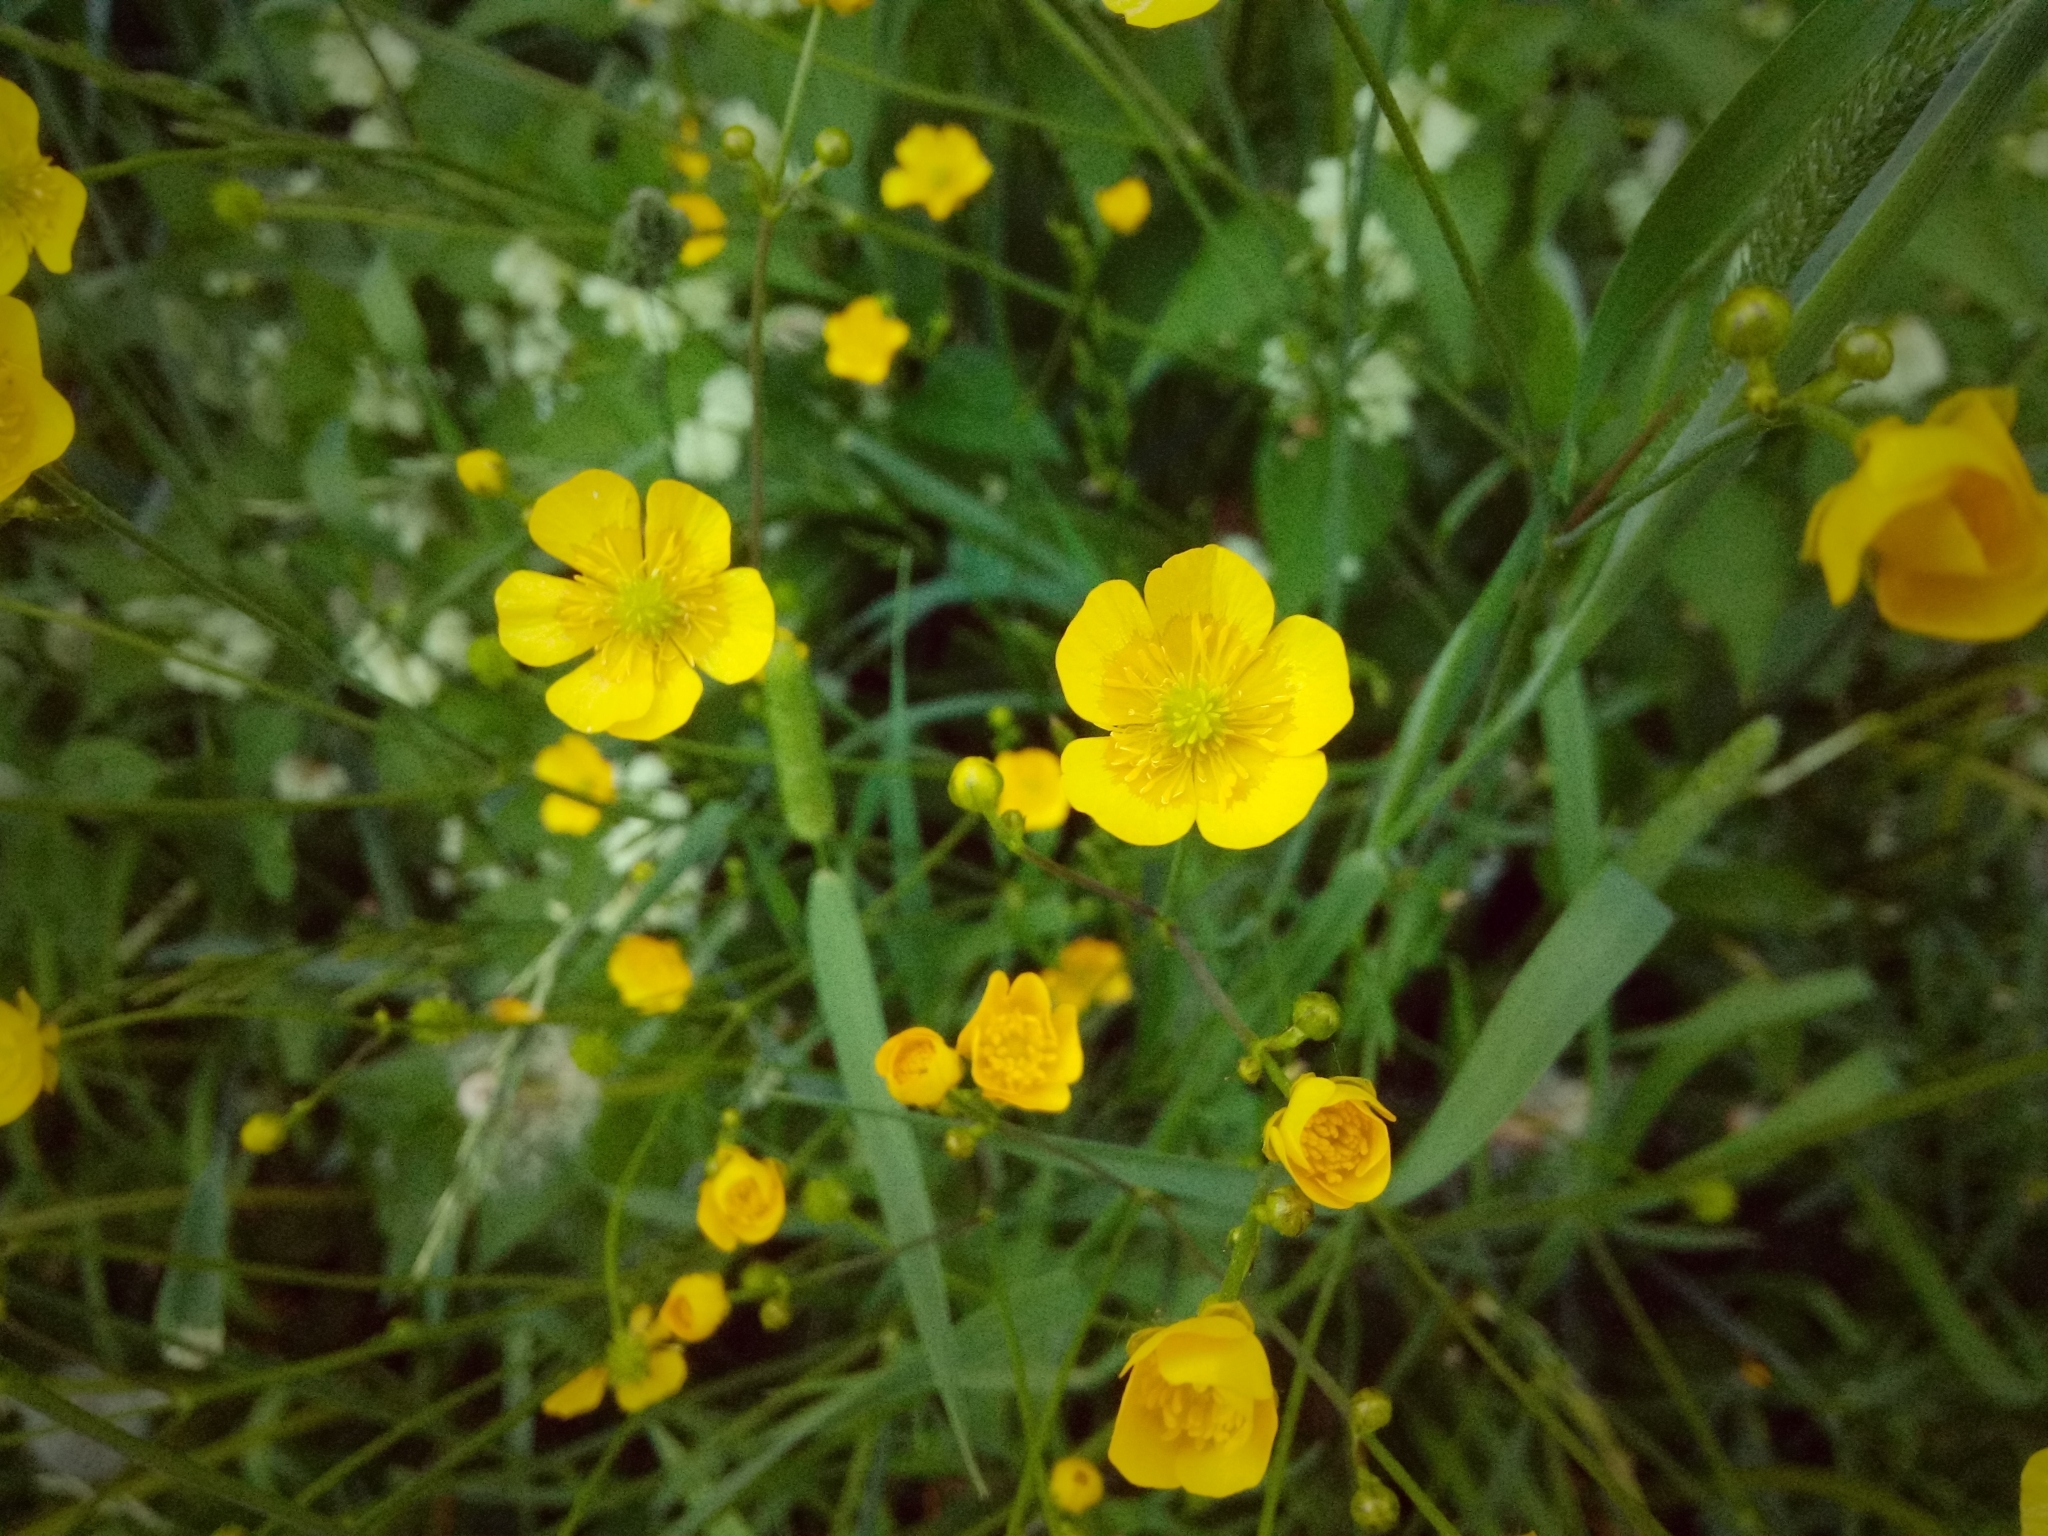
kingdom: Plantae
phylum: Tracheophyta
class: Magnoliopsida
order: Ranunculales
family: Ranunculaceae
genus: Ranunculus
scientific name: Ranunculus acris
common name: Meadow buttercup
